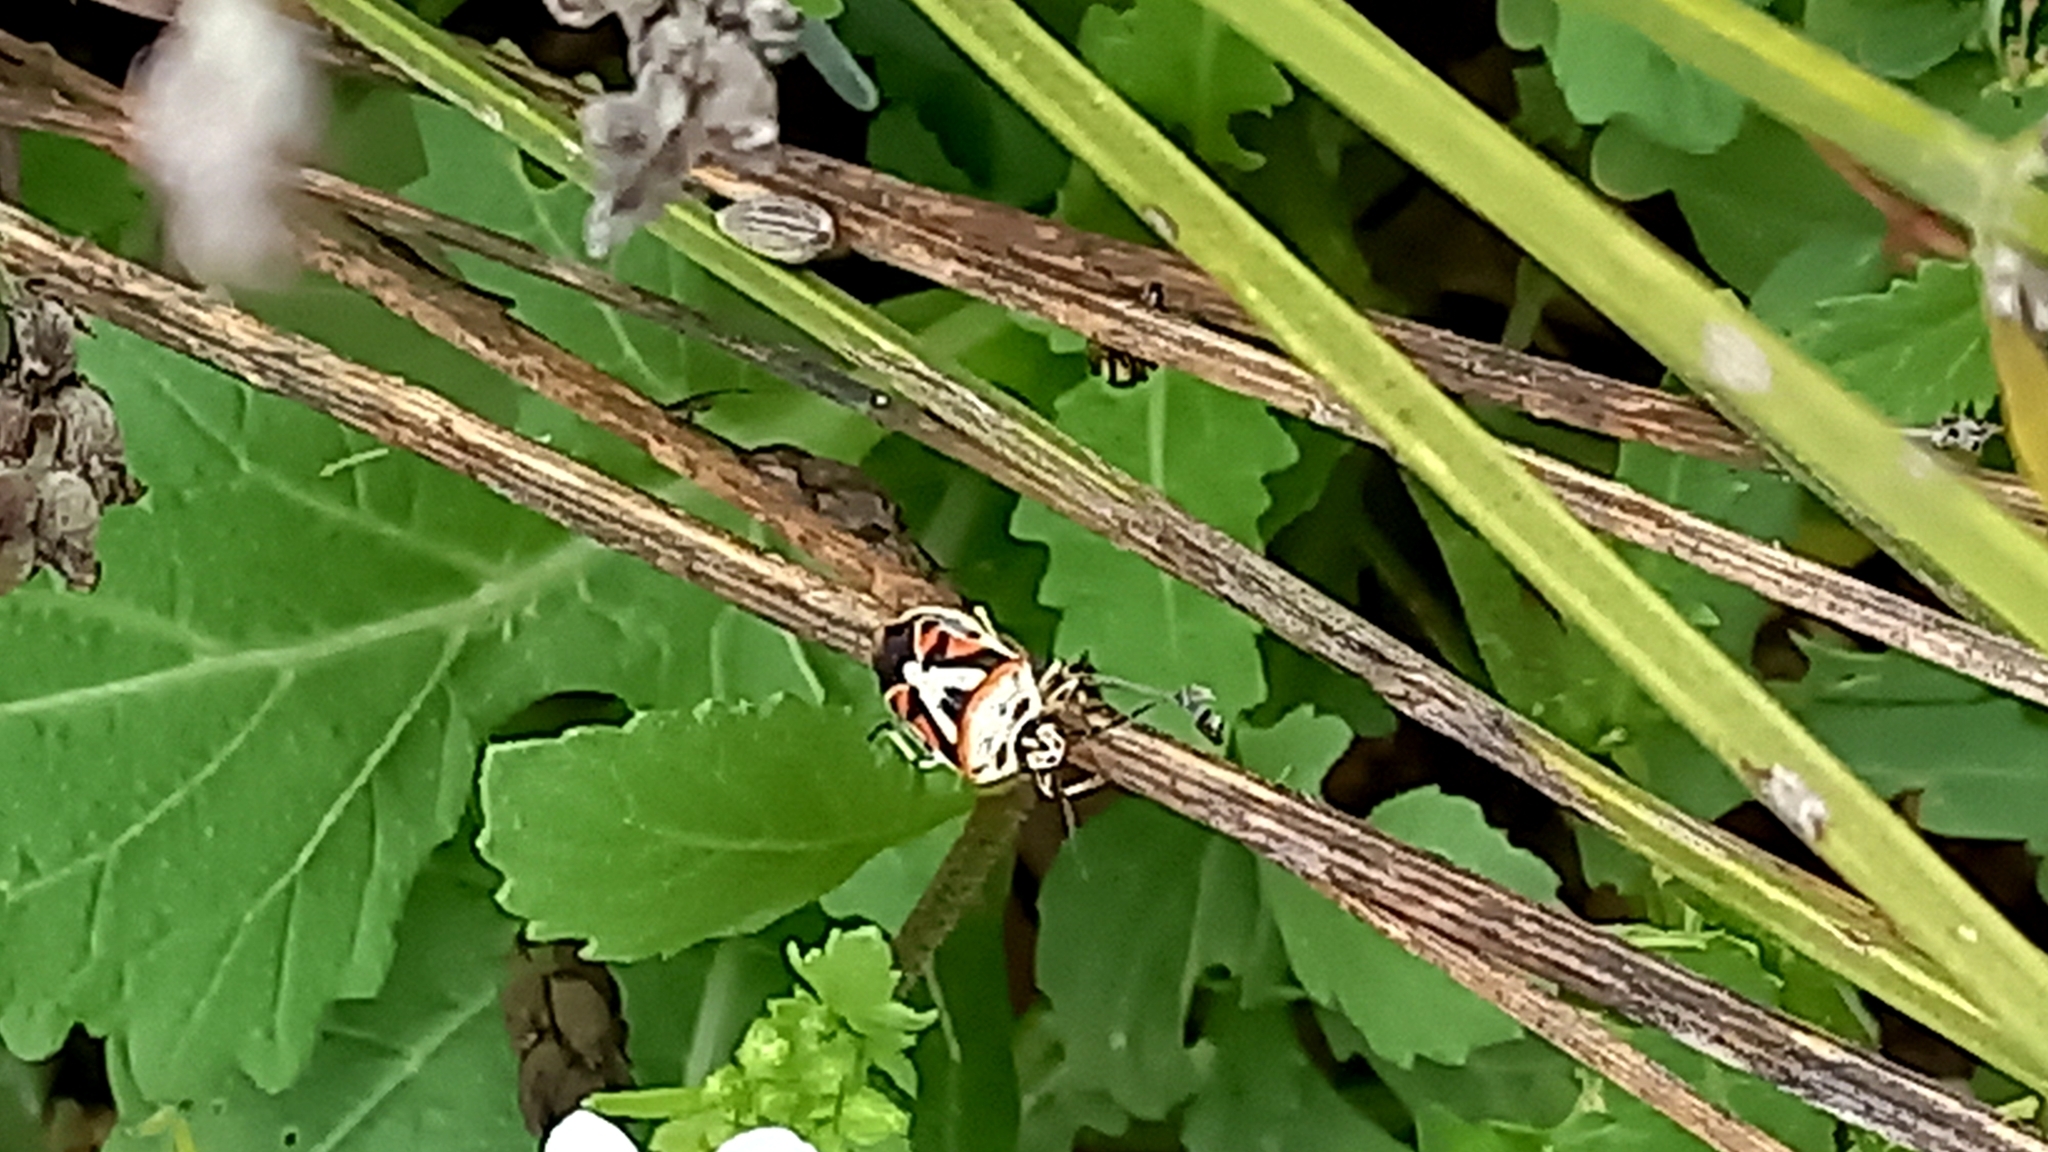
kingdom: Animalia
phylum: Arthropoda
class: Insecta
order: Hemiptera
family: Pentatomidae
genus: Eurydema
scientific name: Eurydema ornata
